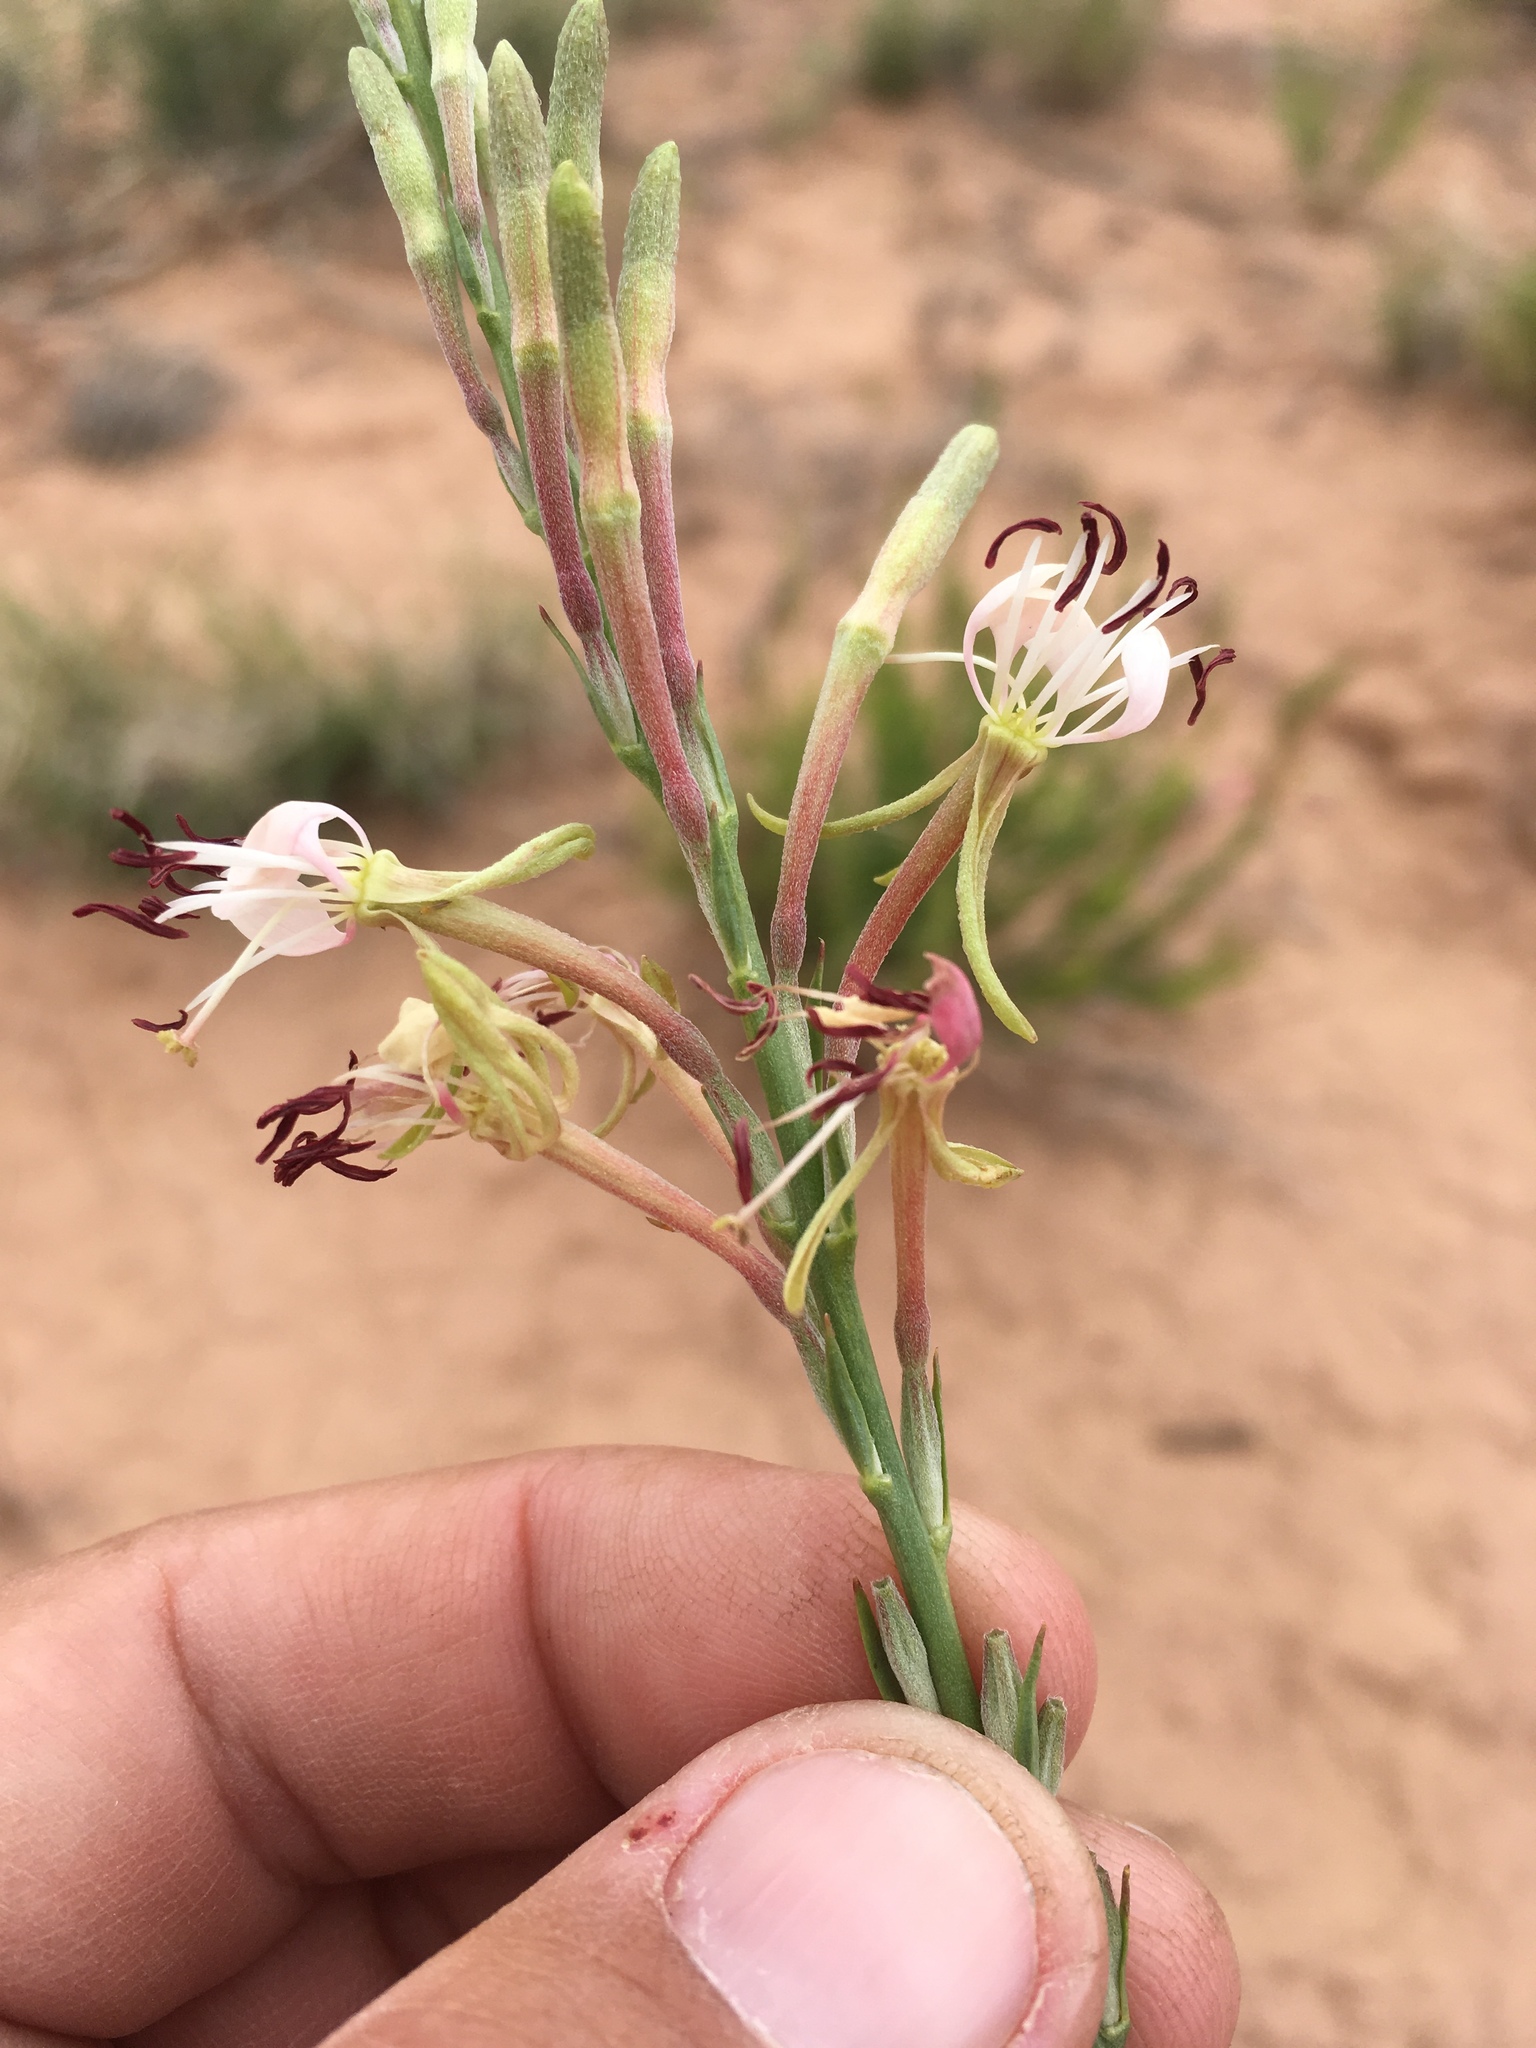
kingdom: Plantae
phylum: Tracheophyta
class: Magnoliopsida
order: Myrtales
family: Onagraceae
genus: Oenothera
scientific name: Oenothera suffrutescens
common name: Scarlet beeblossom
